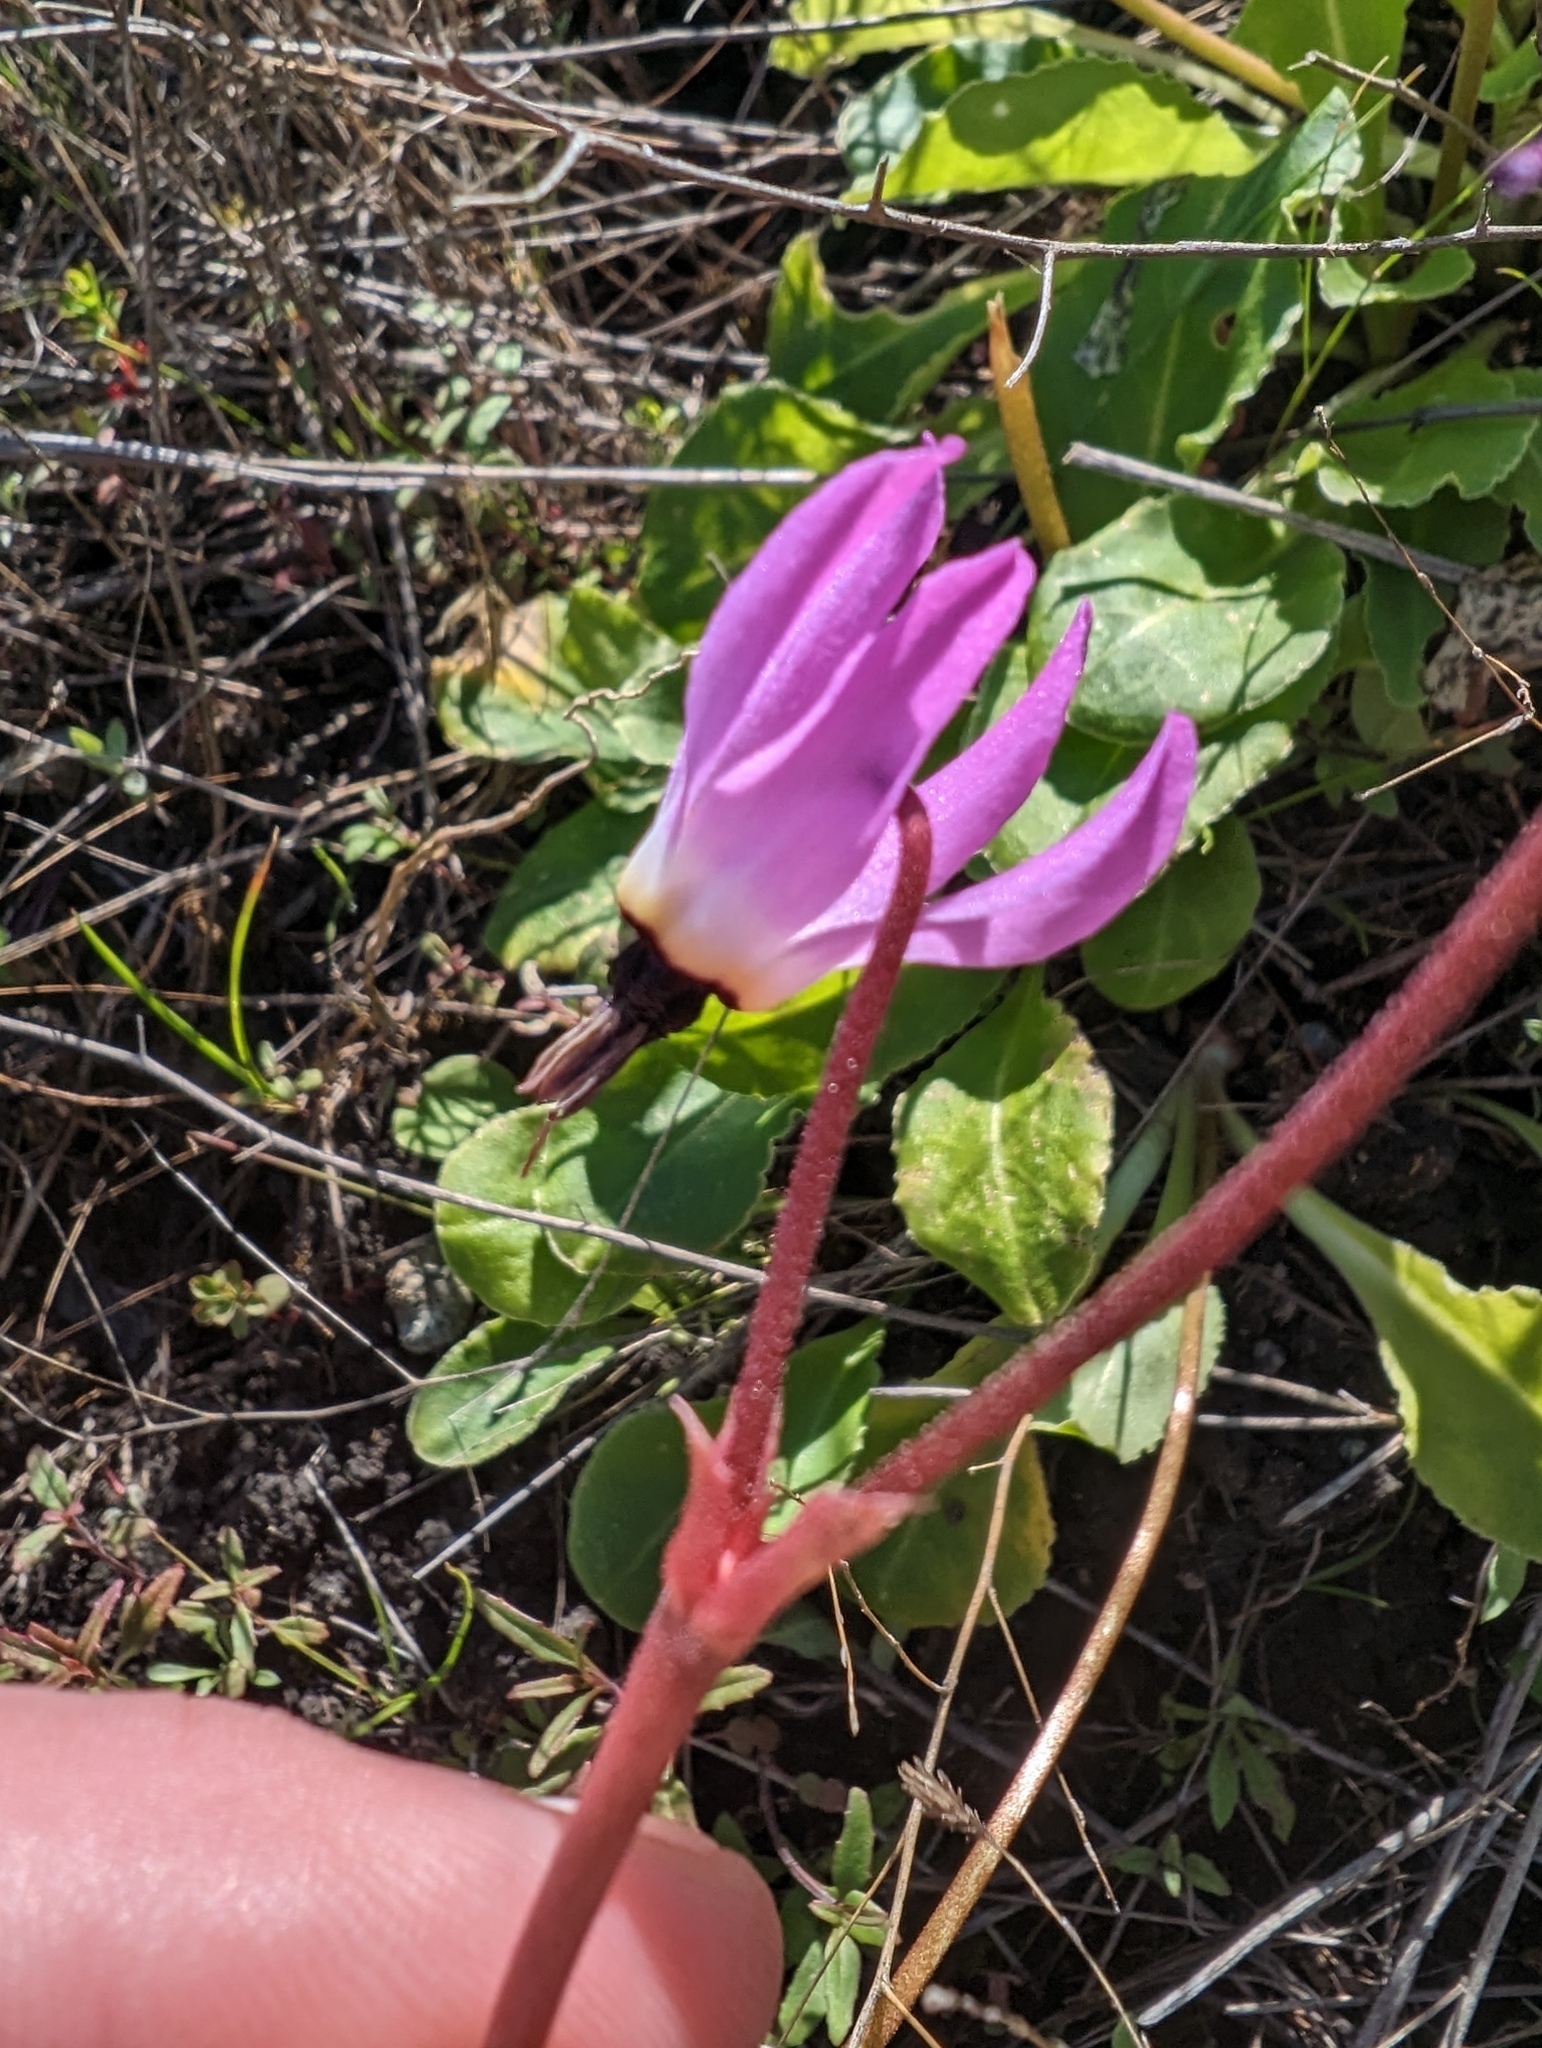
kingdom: Plantae
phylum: Tracheophyta
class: Magnoliopsida
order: Ericales
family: Primulaceae
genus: Dodecatheon
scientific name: Dodecatheon hendersonii
